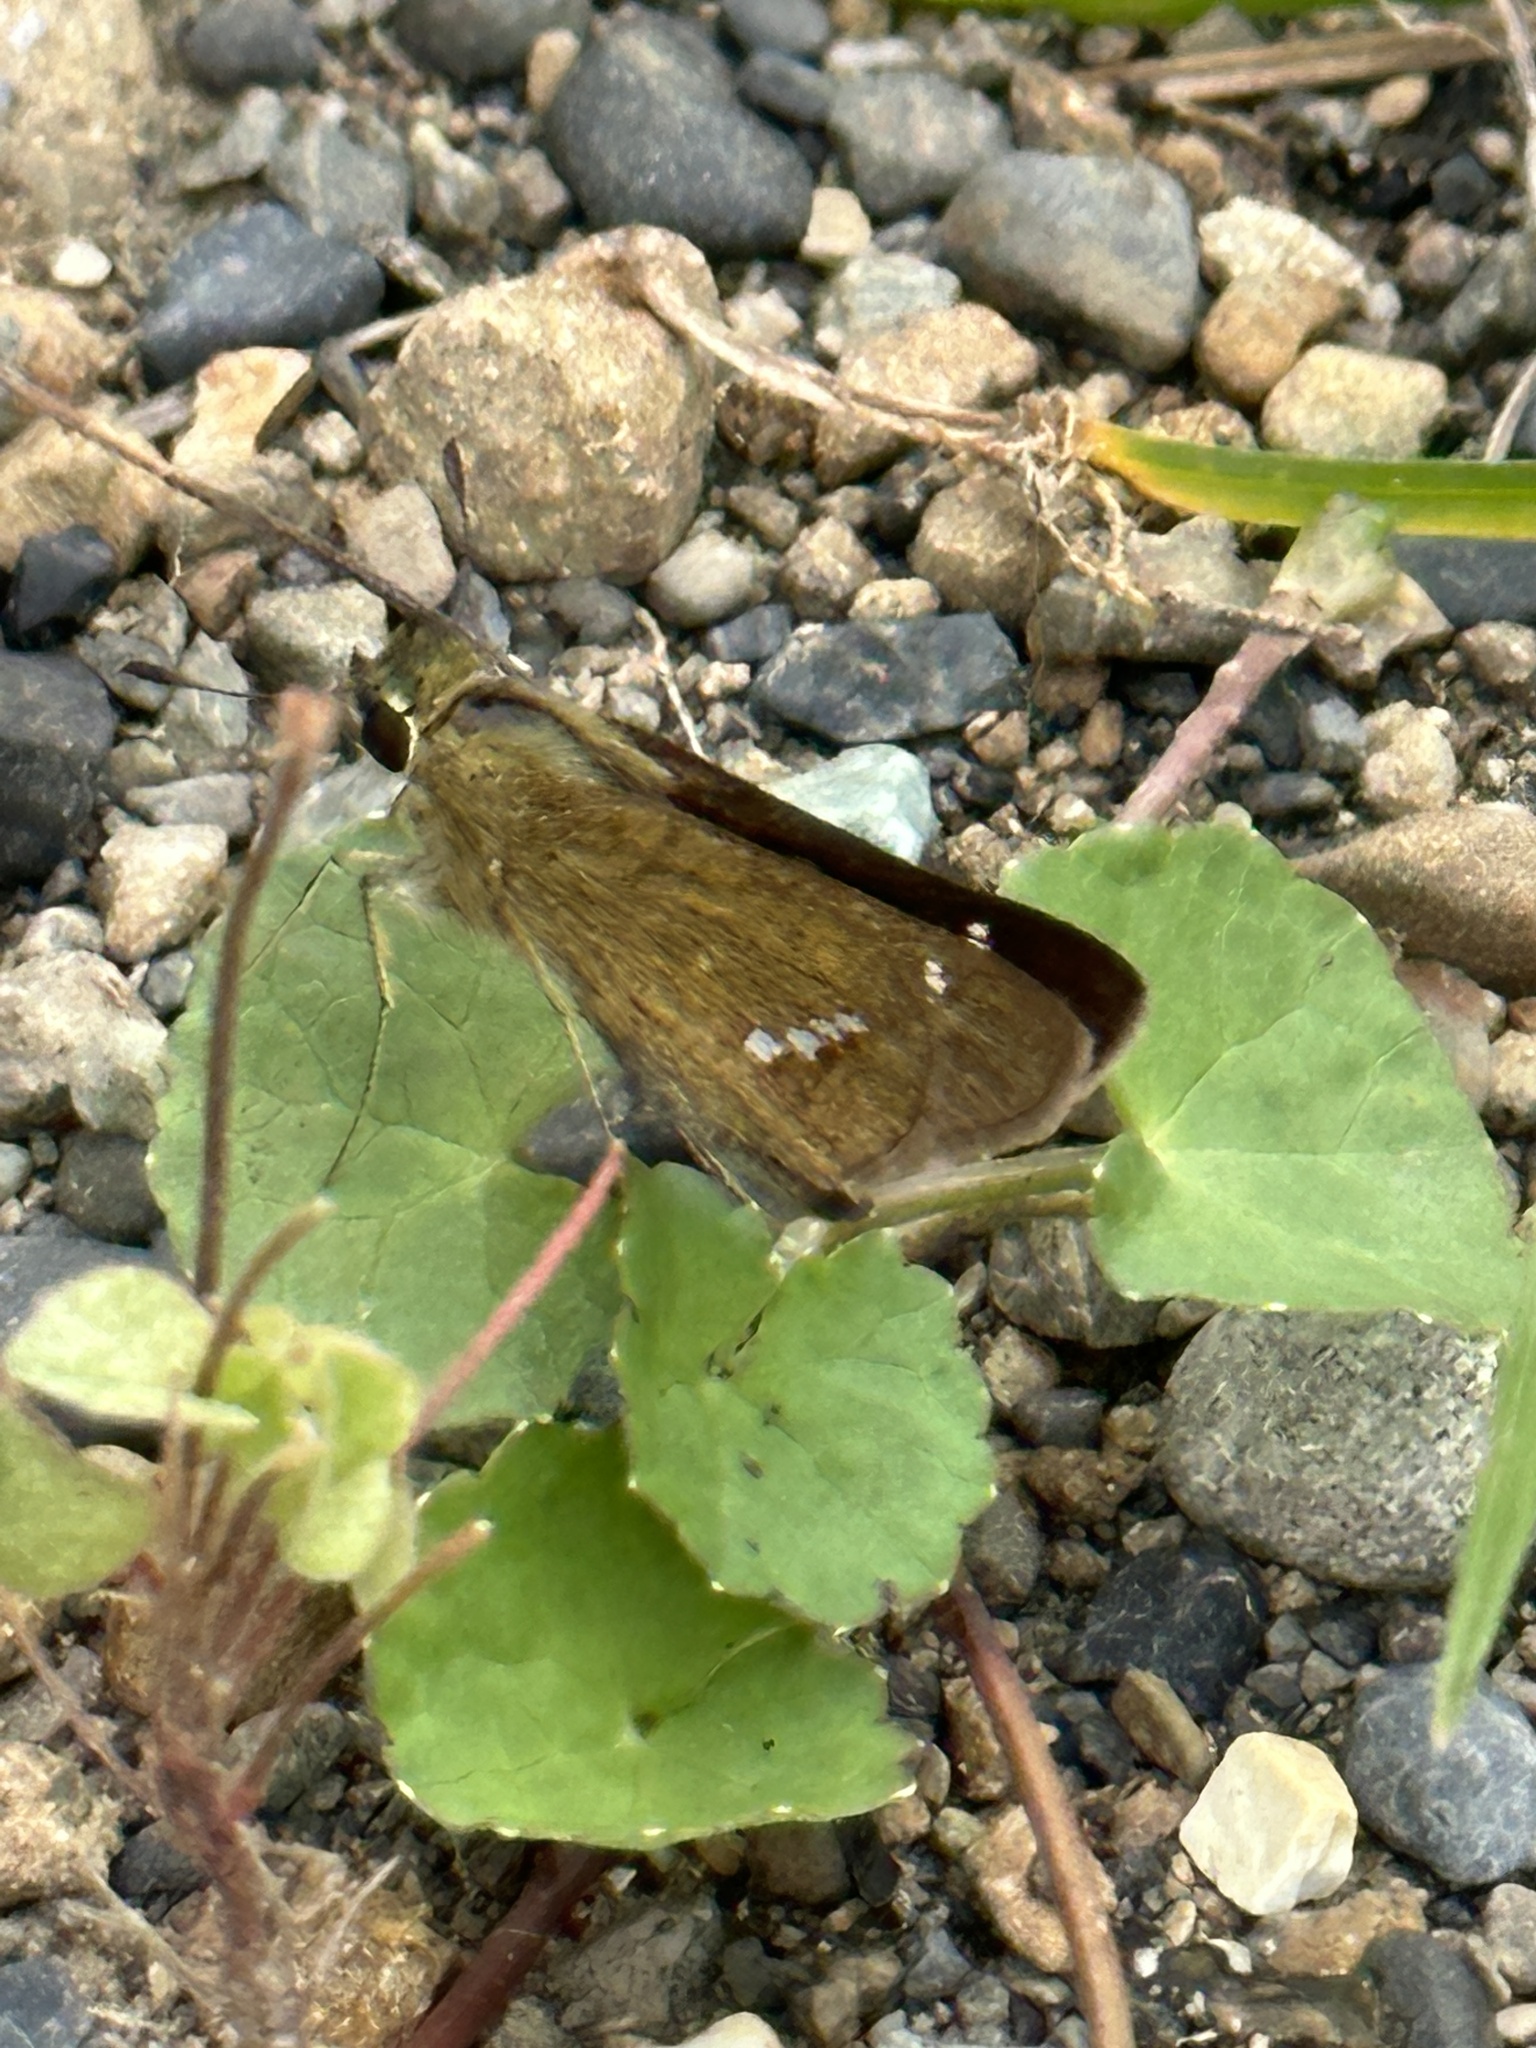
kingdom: Animalia
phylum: Arthropoda
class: Insecta
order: Lepidoptera
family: Hesperiidae
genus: Parnara
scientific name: Parnara guttatus
